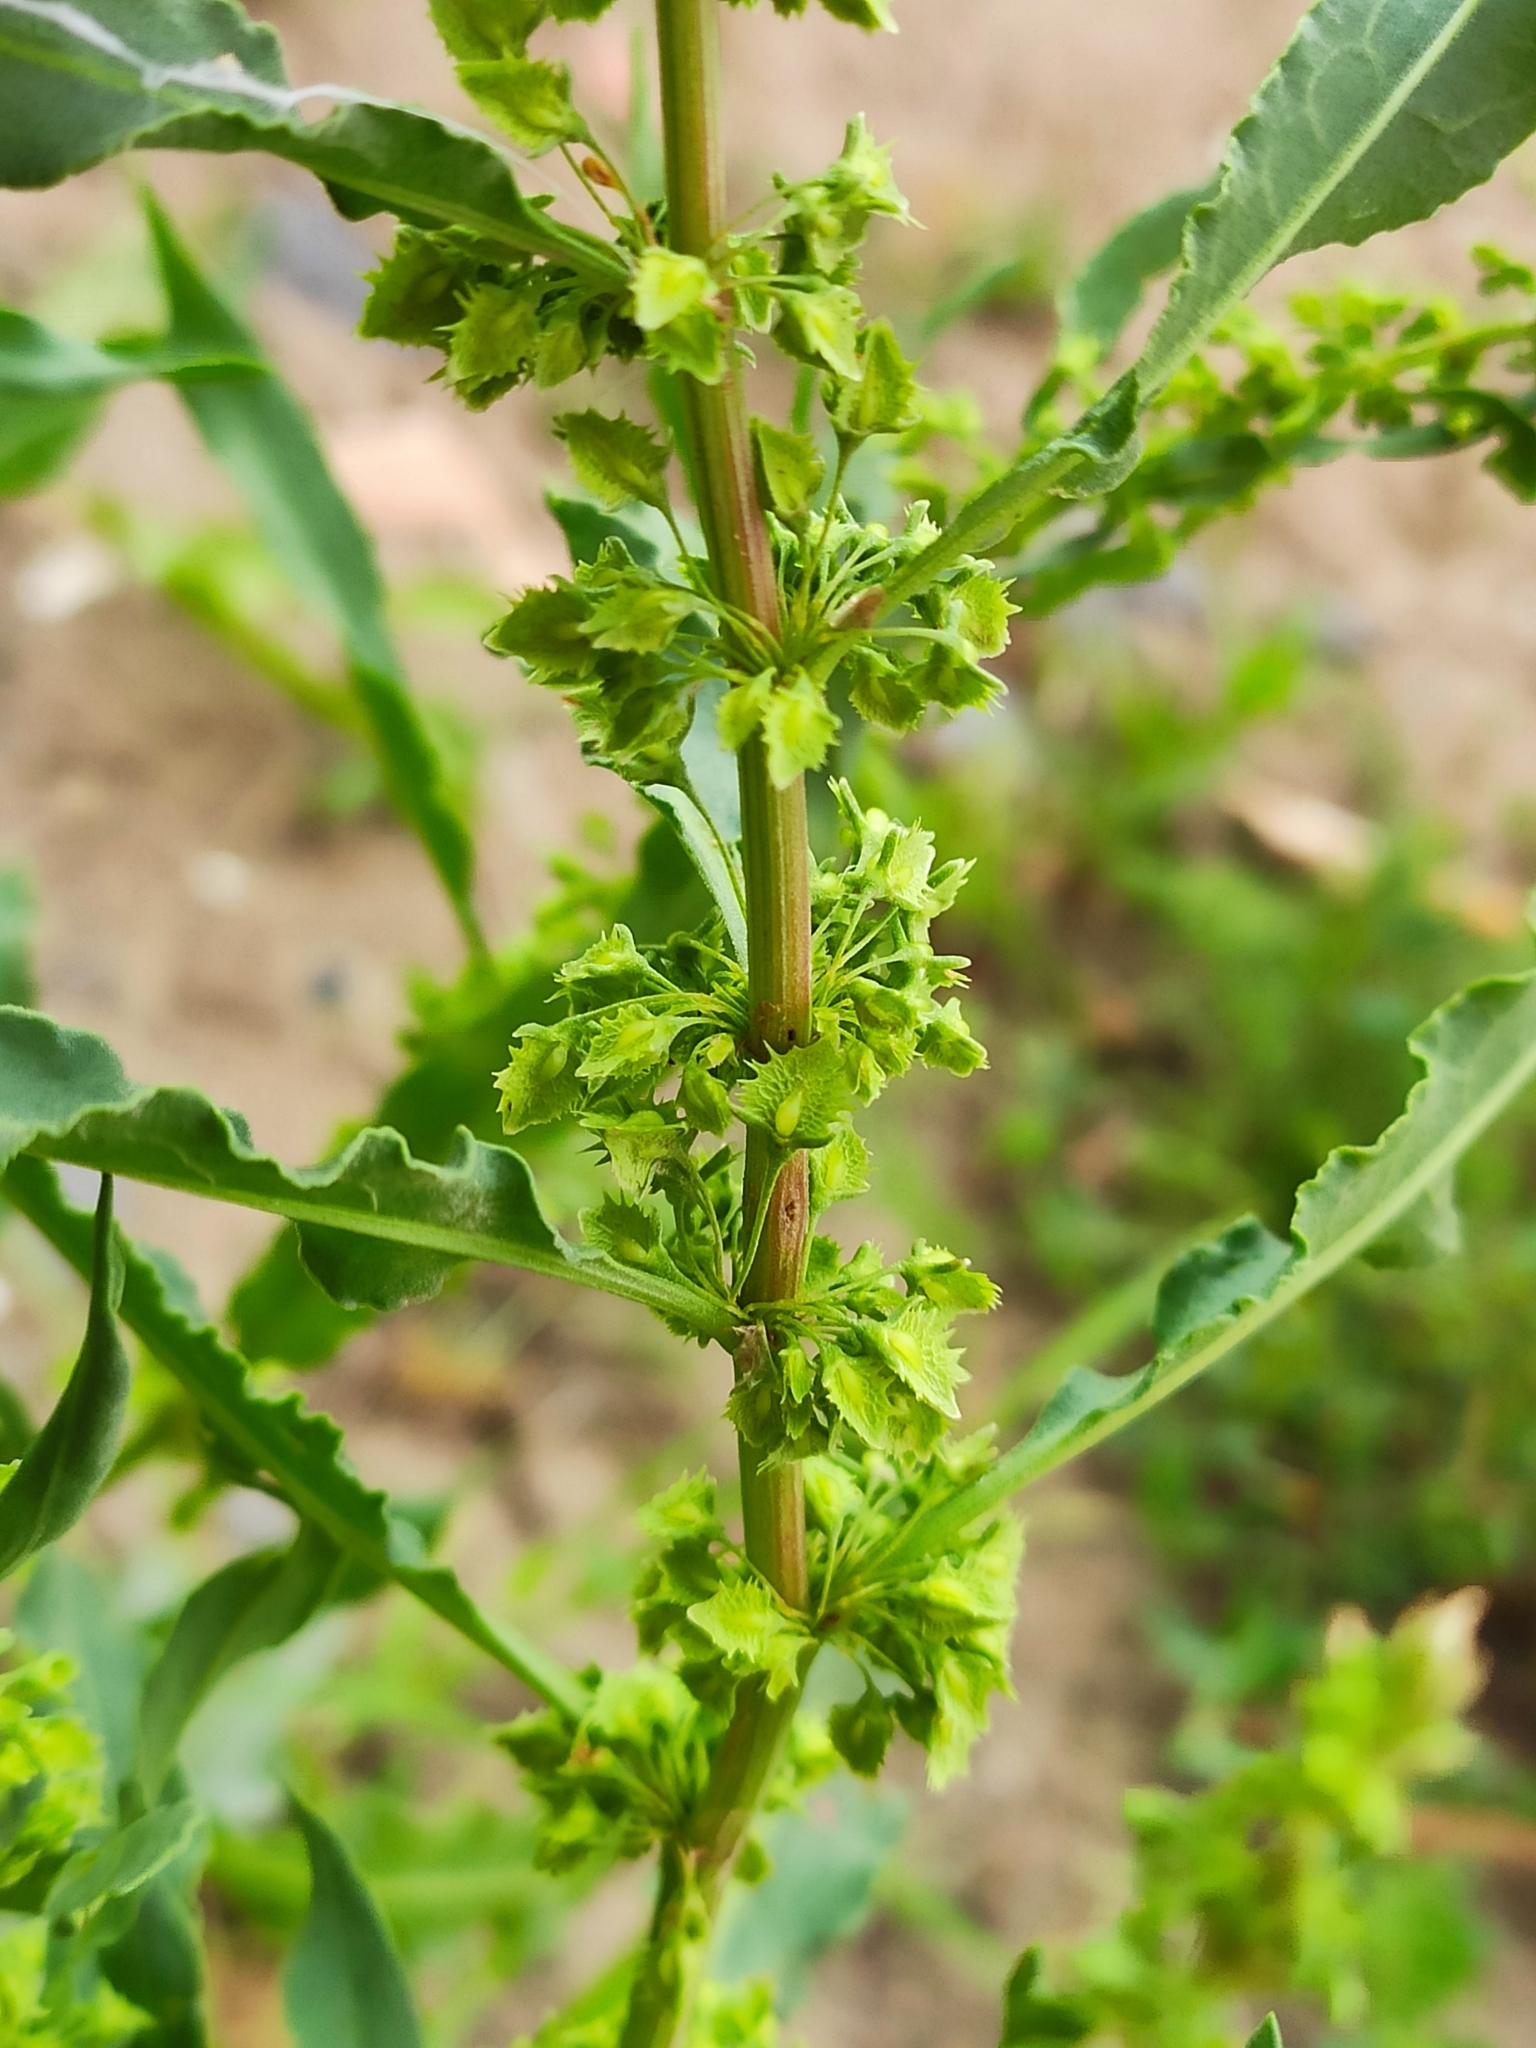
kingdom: Plantae
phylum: Tracheophyta
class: Magnoliopsida
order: Caryophyllales
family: Polygonaceae
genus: Rumex
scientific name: Rumex stenophyllus
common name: Narrowleaf dock
